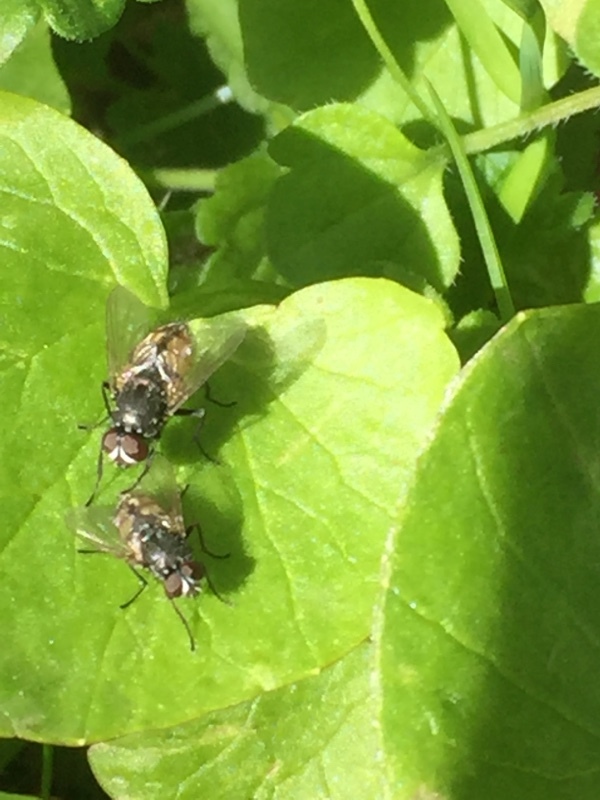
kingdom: Animalia
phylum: Arthropoda
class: Insecta
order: Diptera
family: Muscidae
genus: Musca
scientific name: Musca autumnalis
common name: Face fly
